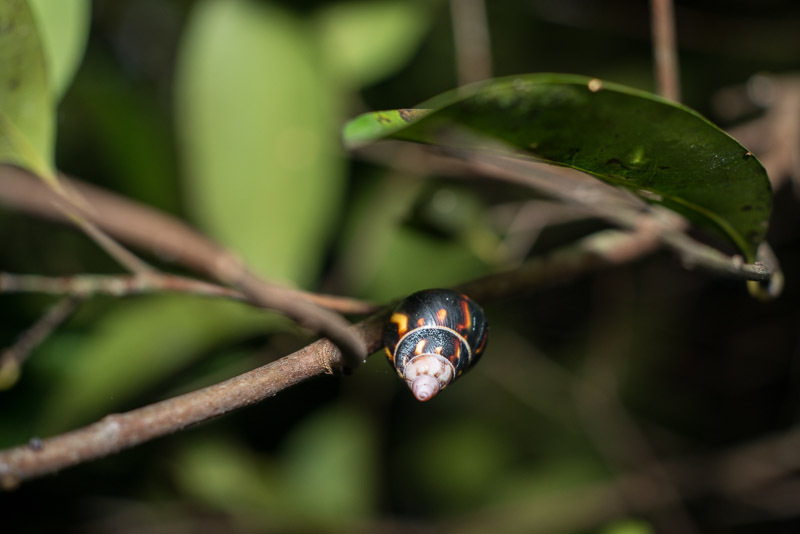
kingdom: Animalia
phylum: Mollusca
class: Gastropoda
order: Stylommatophora
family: Orthalicidae
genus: Liguus
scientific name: Liguus fasciatus
